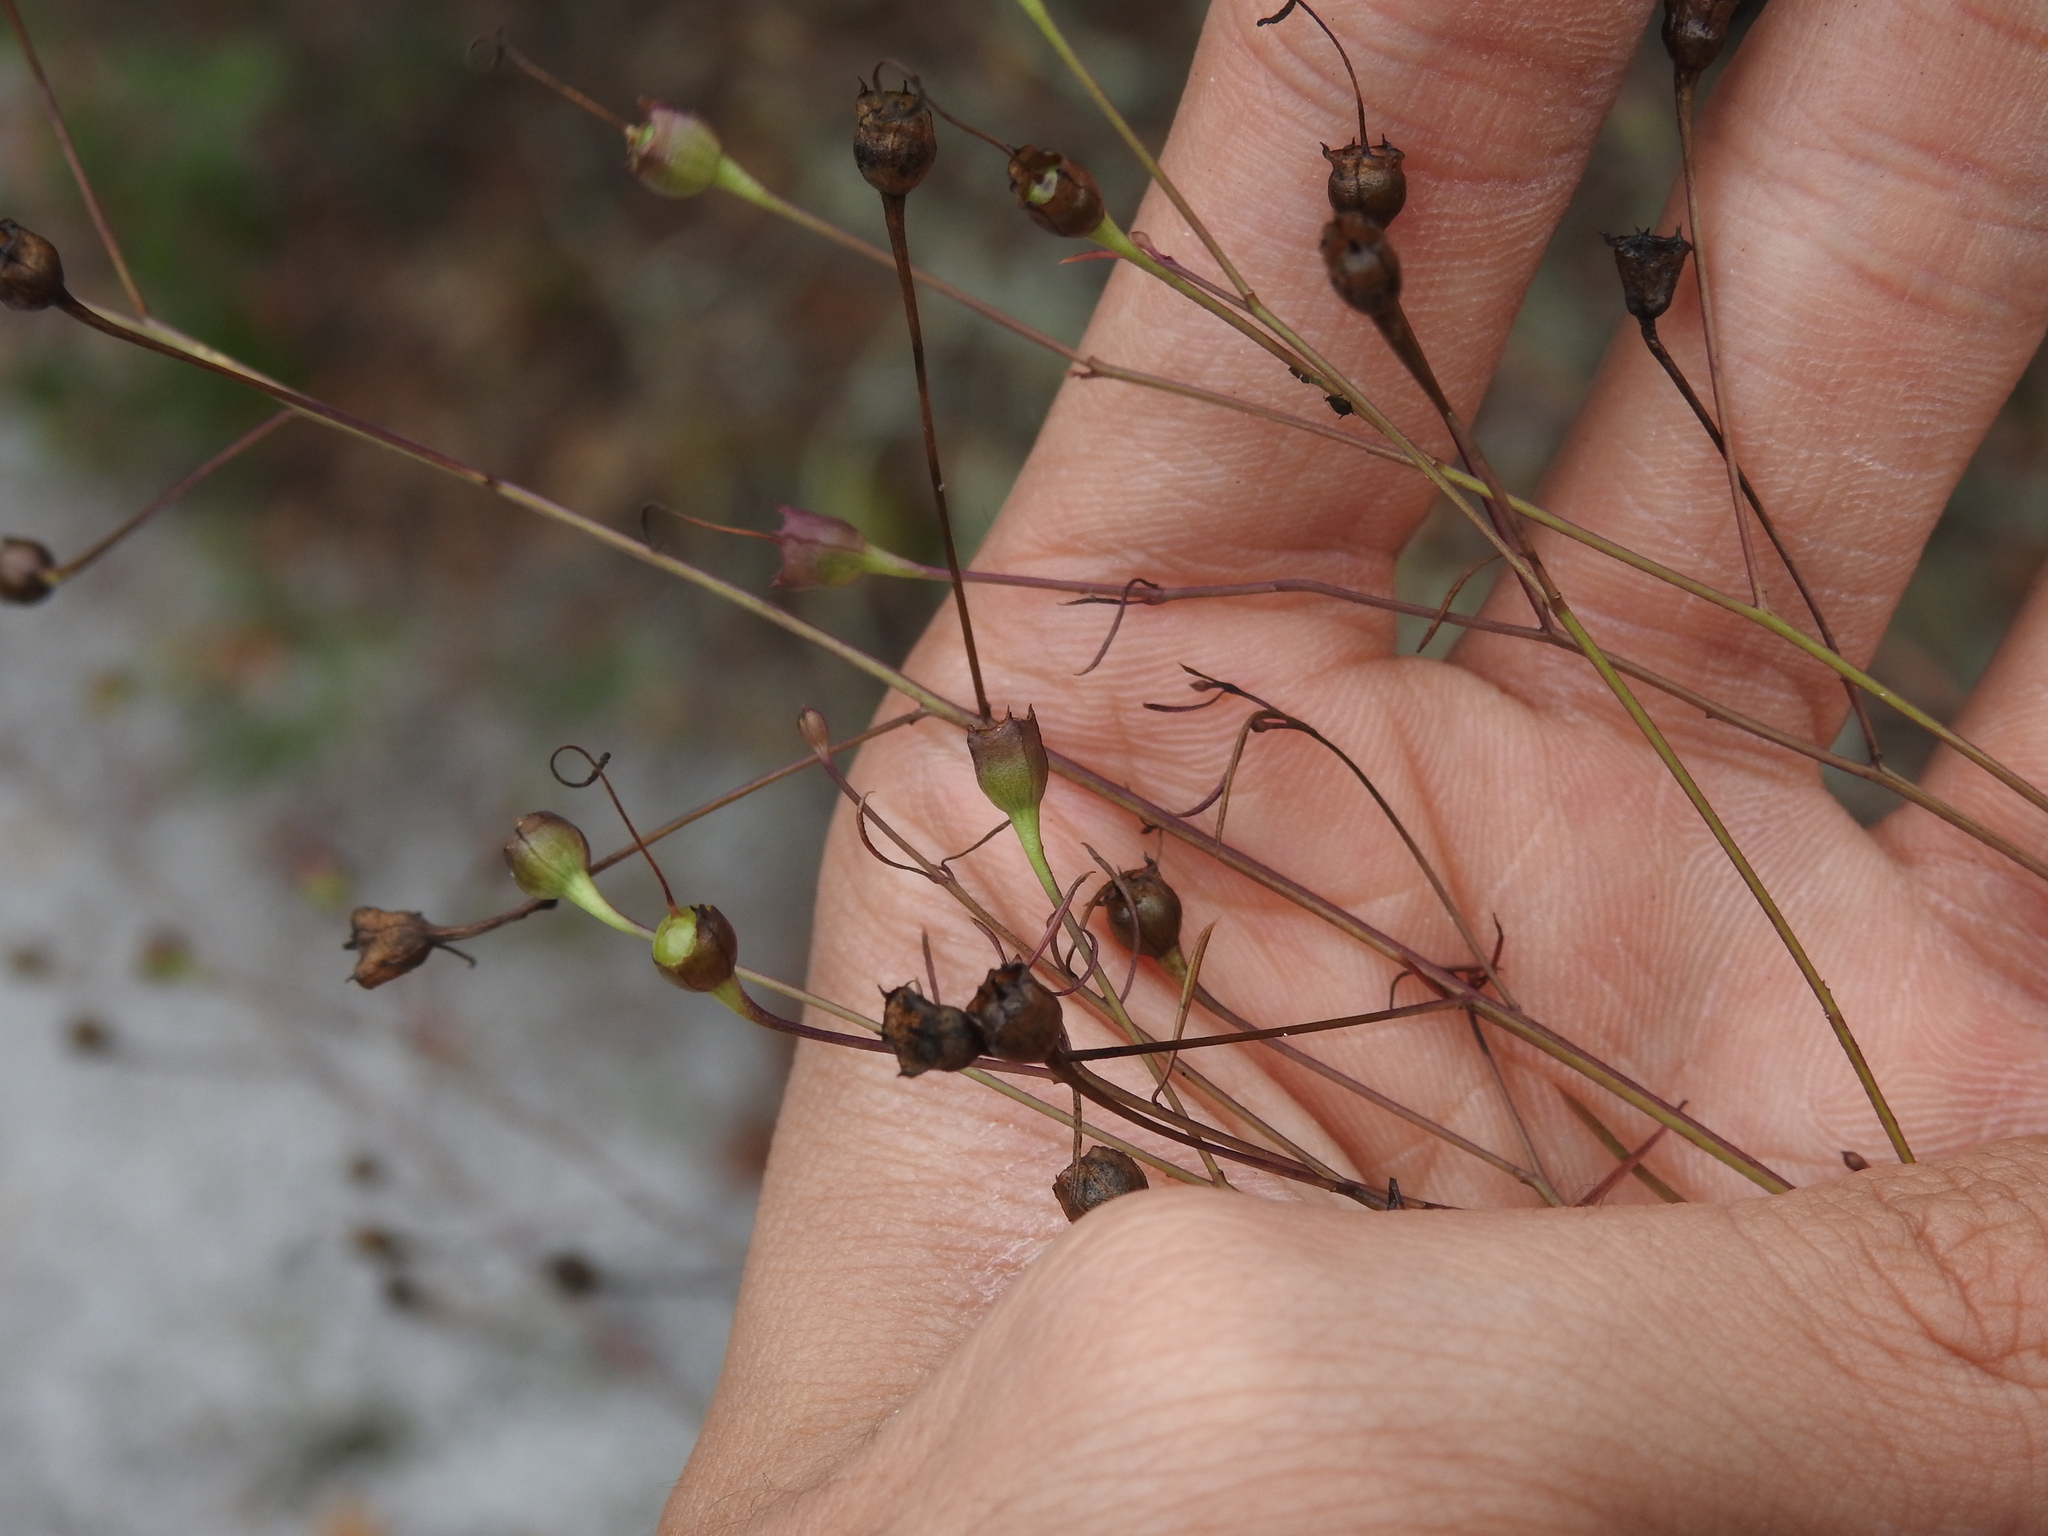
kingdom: Plantae
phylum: Tracheophyta
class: Magnoliopsida
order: Lamiales
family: Orobanchaceae
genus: Agalinis
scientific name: Agalinis filifolia
